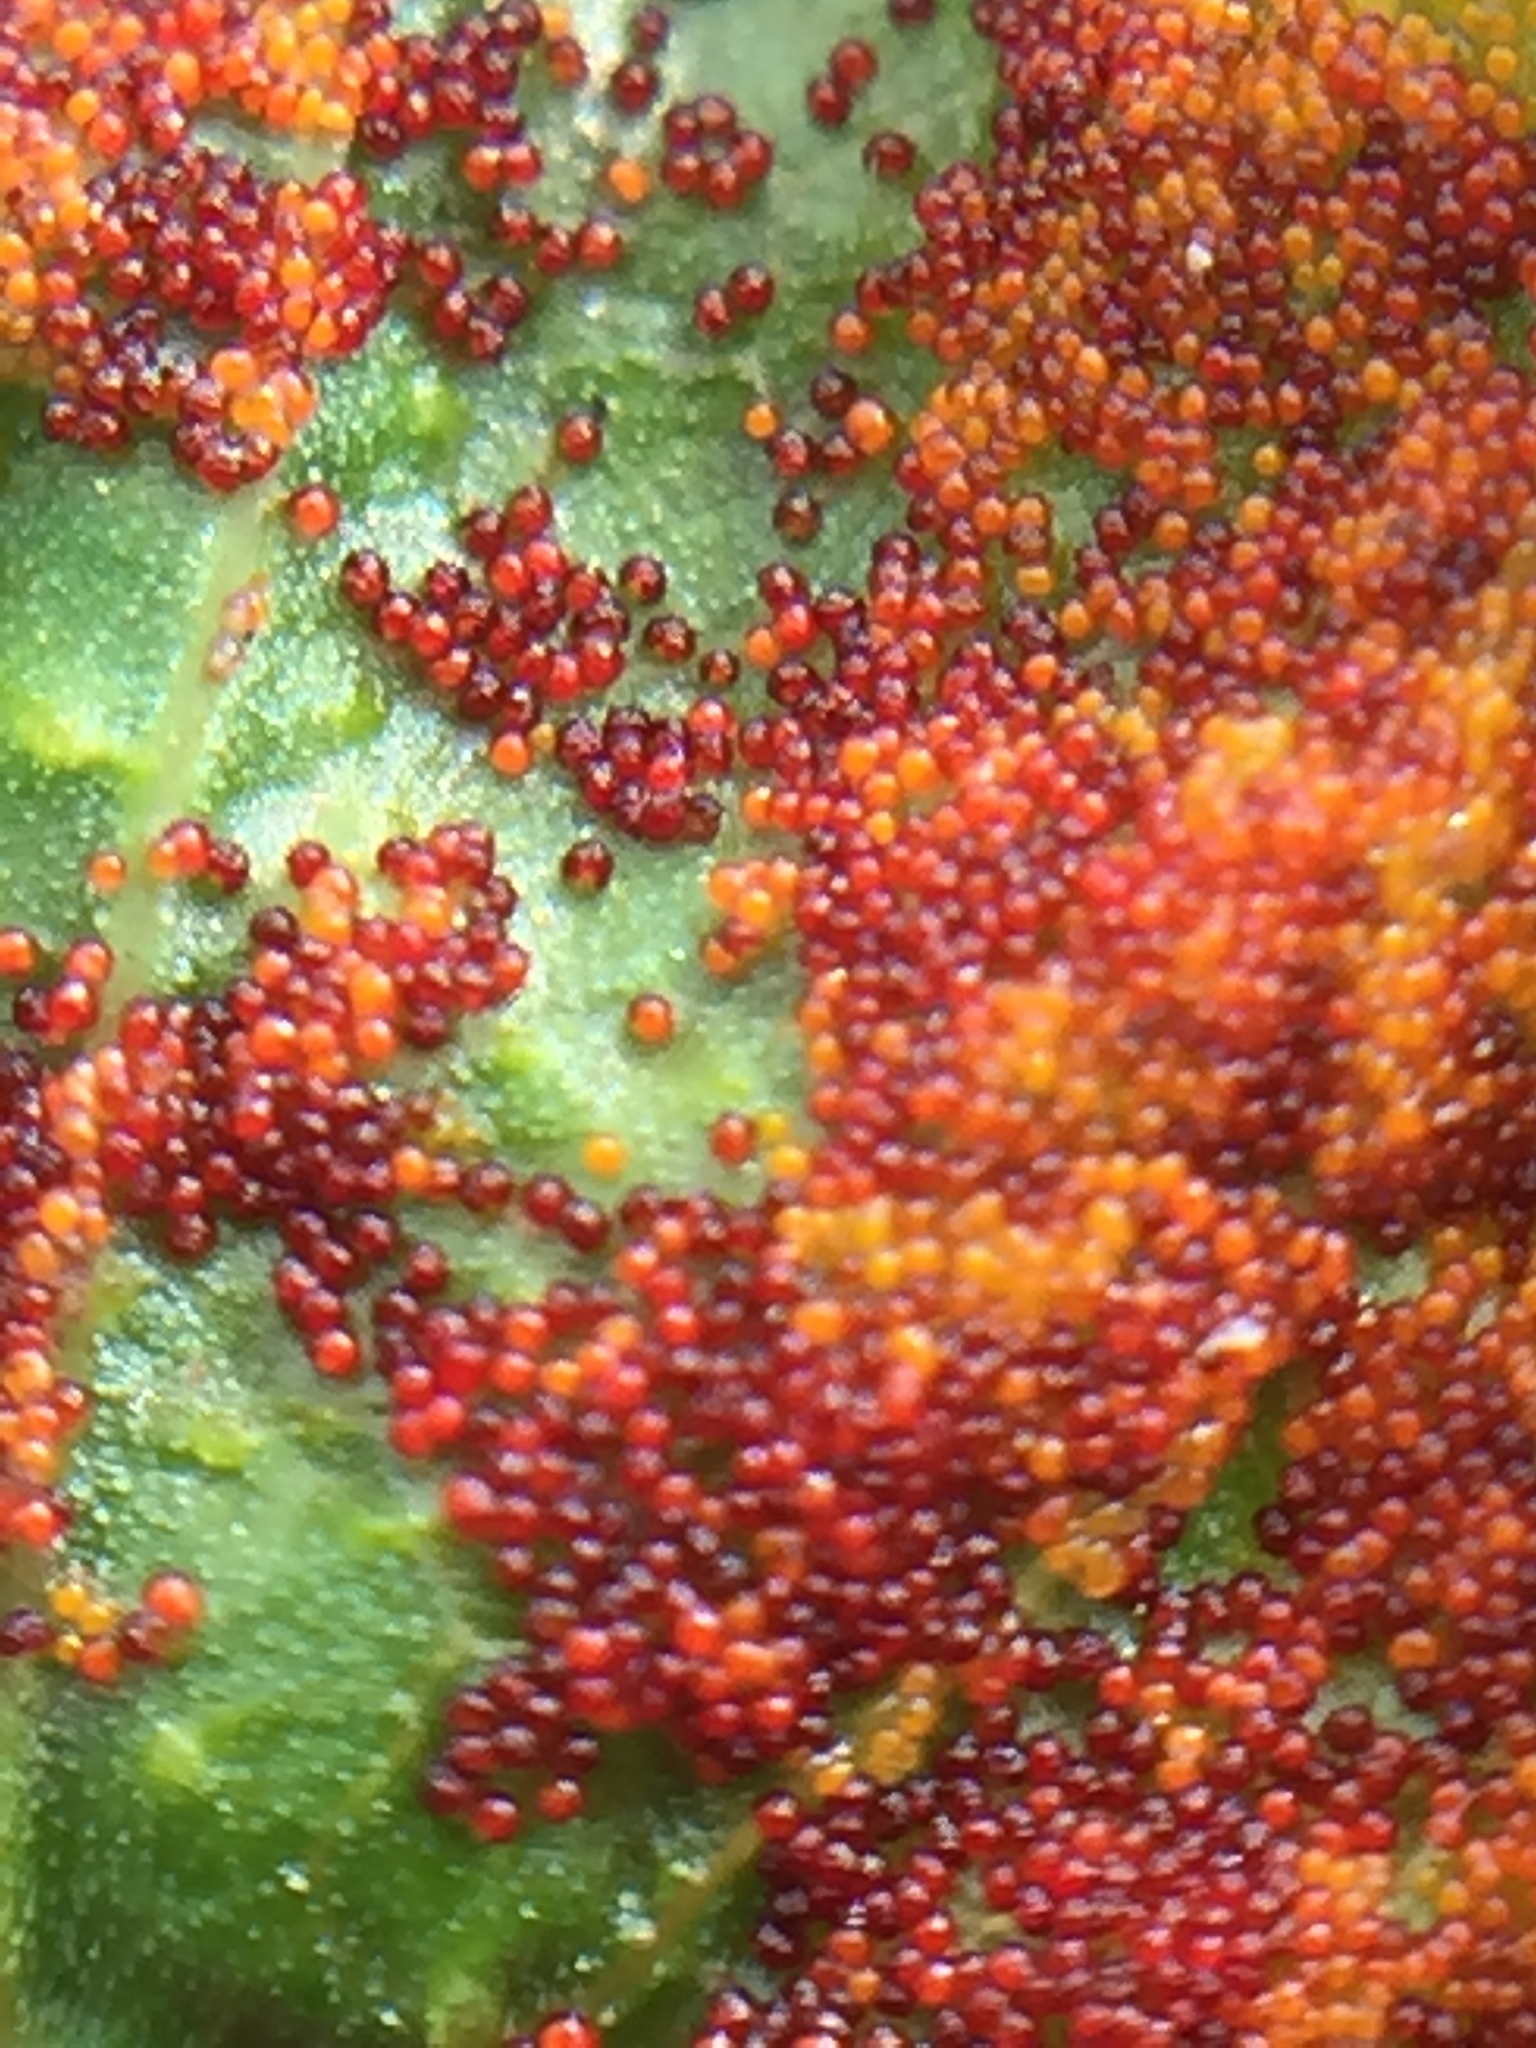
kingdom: Fungi
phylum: Chytridiomycota
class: Chytridiomycetes
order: Chytridiales
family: Synchytriaceae
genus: Synchytrium
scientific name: Synchytrium australe
